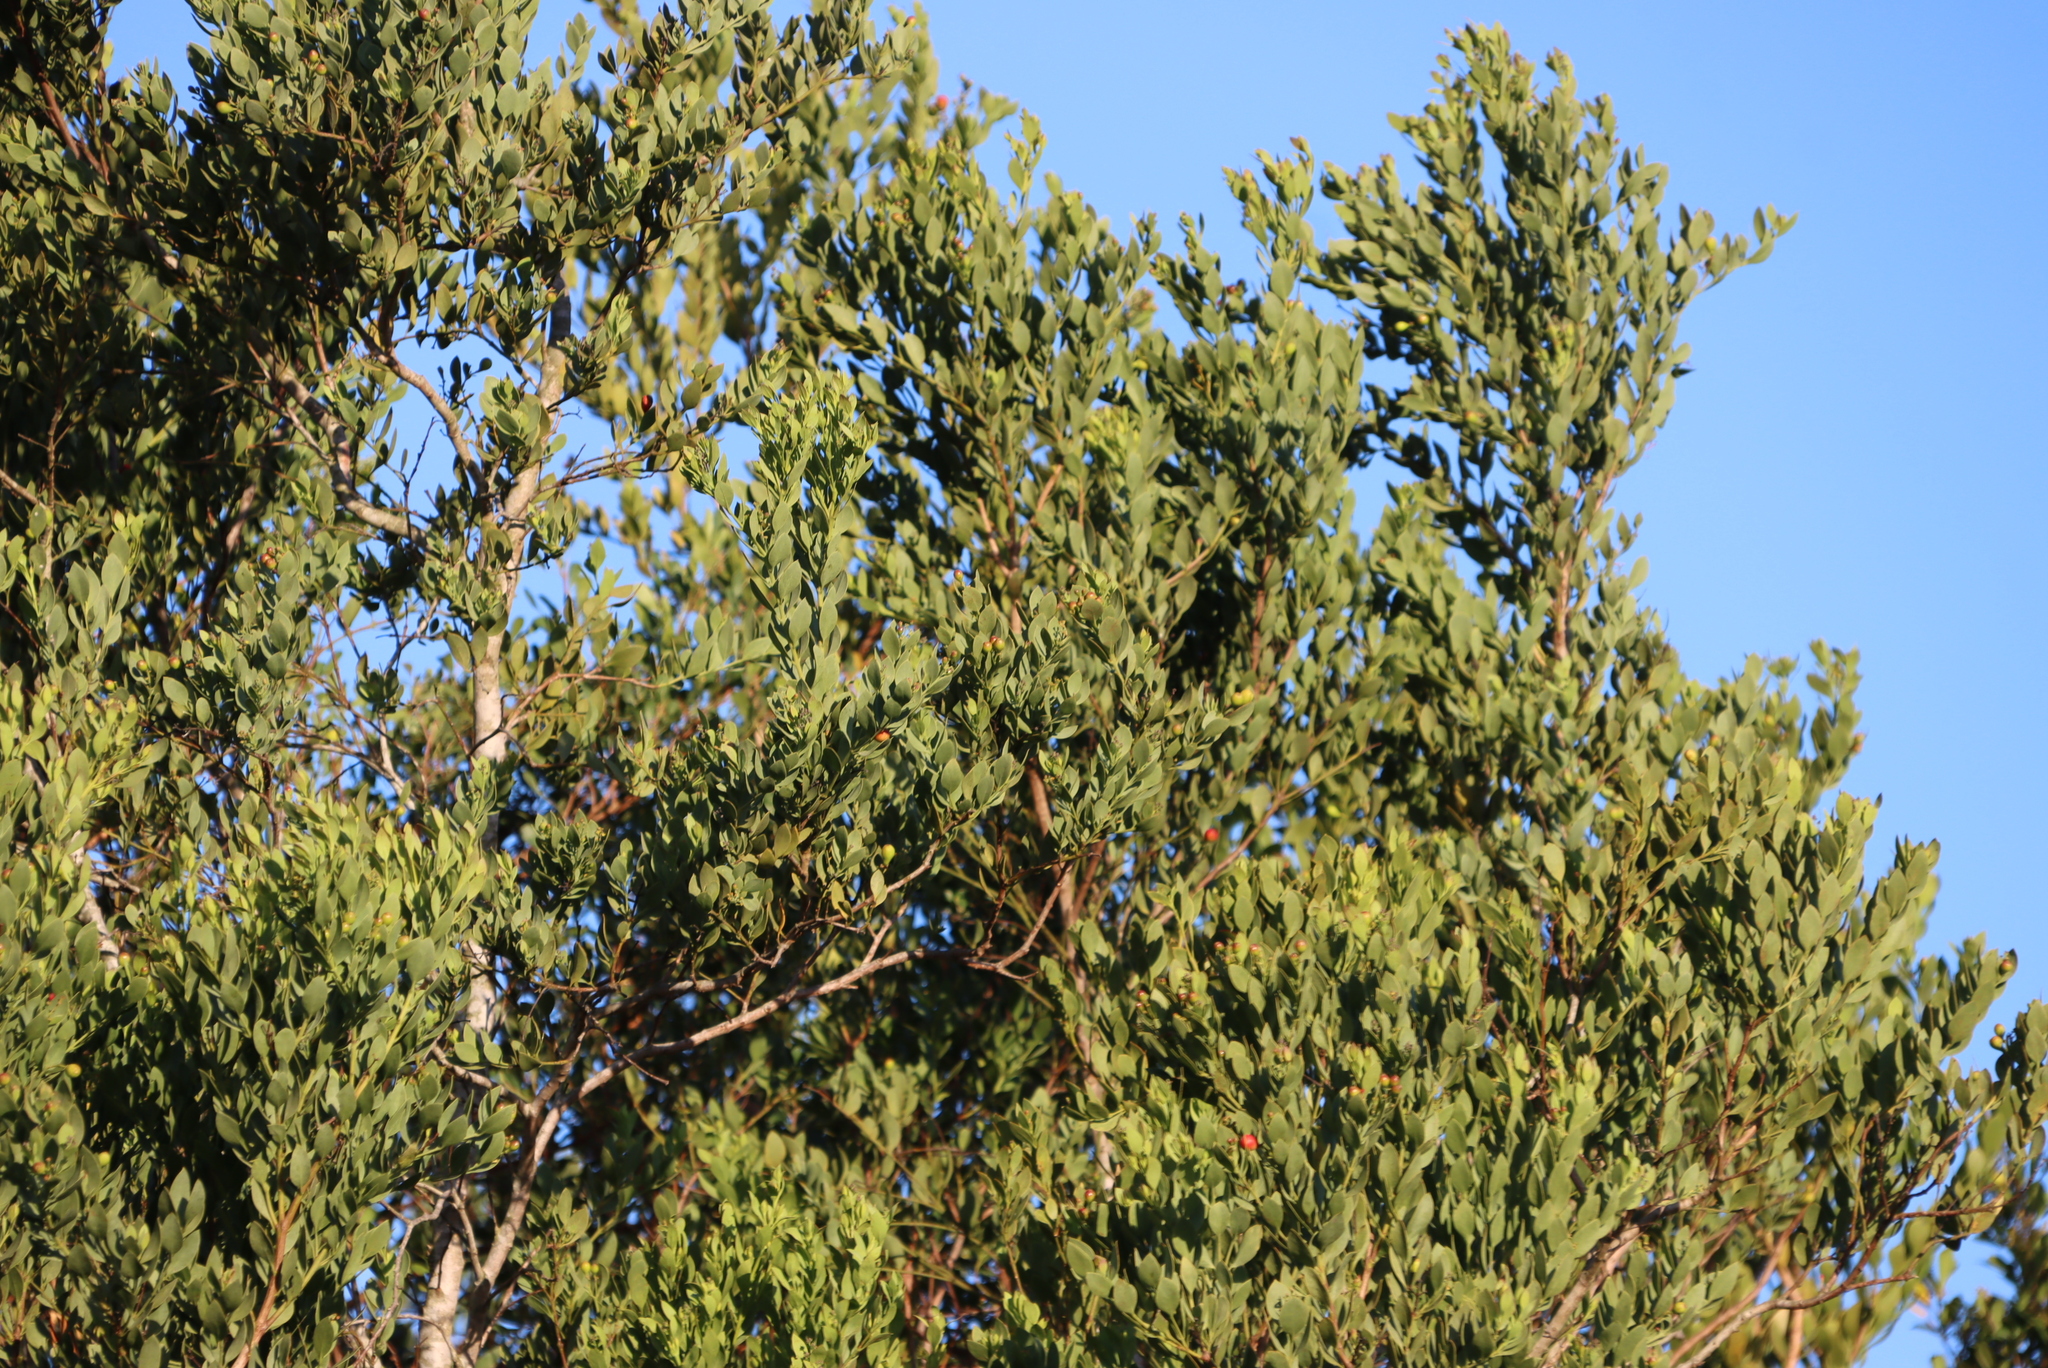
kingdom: Plantae
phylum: Tracheophyta
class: Magnoliopsida
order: Santalales
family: Santalaceae
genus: Osyris
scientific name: Osyris compressa
